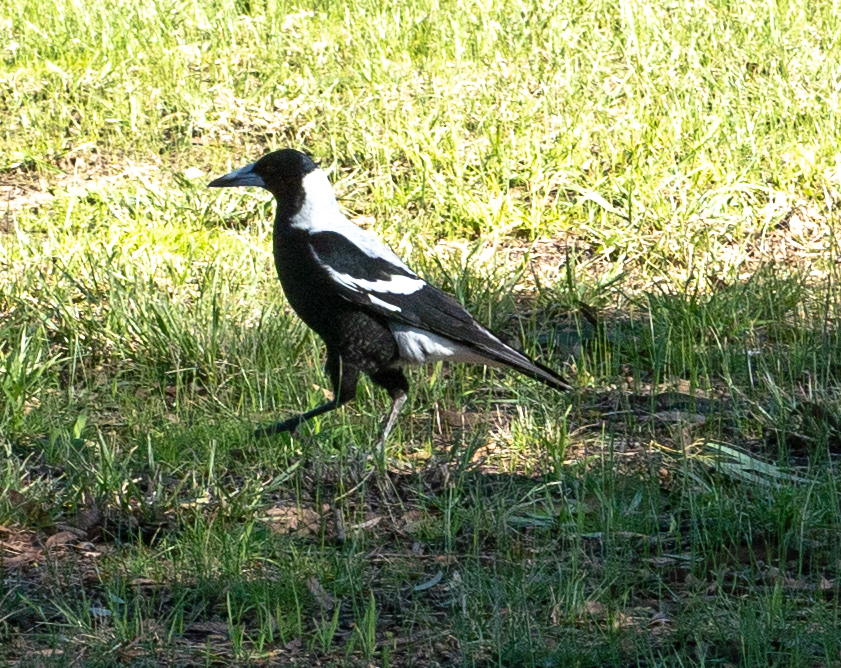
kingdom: Animalia
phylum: Chordata
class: Aves
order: Passeriformes
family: Cracticidae
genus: Gymnorhina
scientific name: Gymnorhina tibicen
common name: Australian magpie
